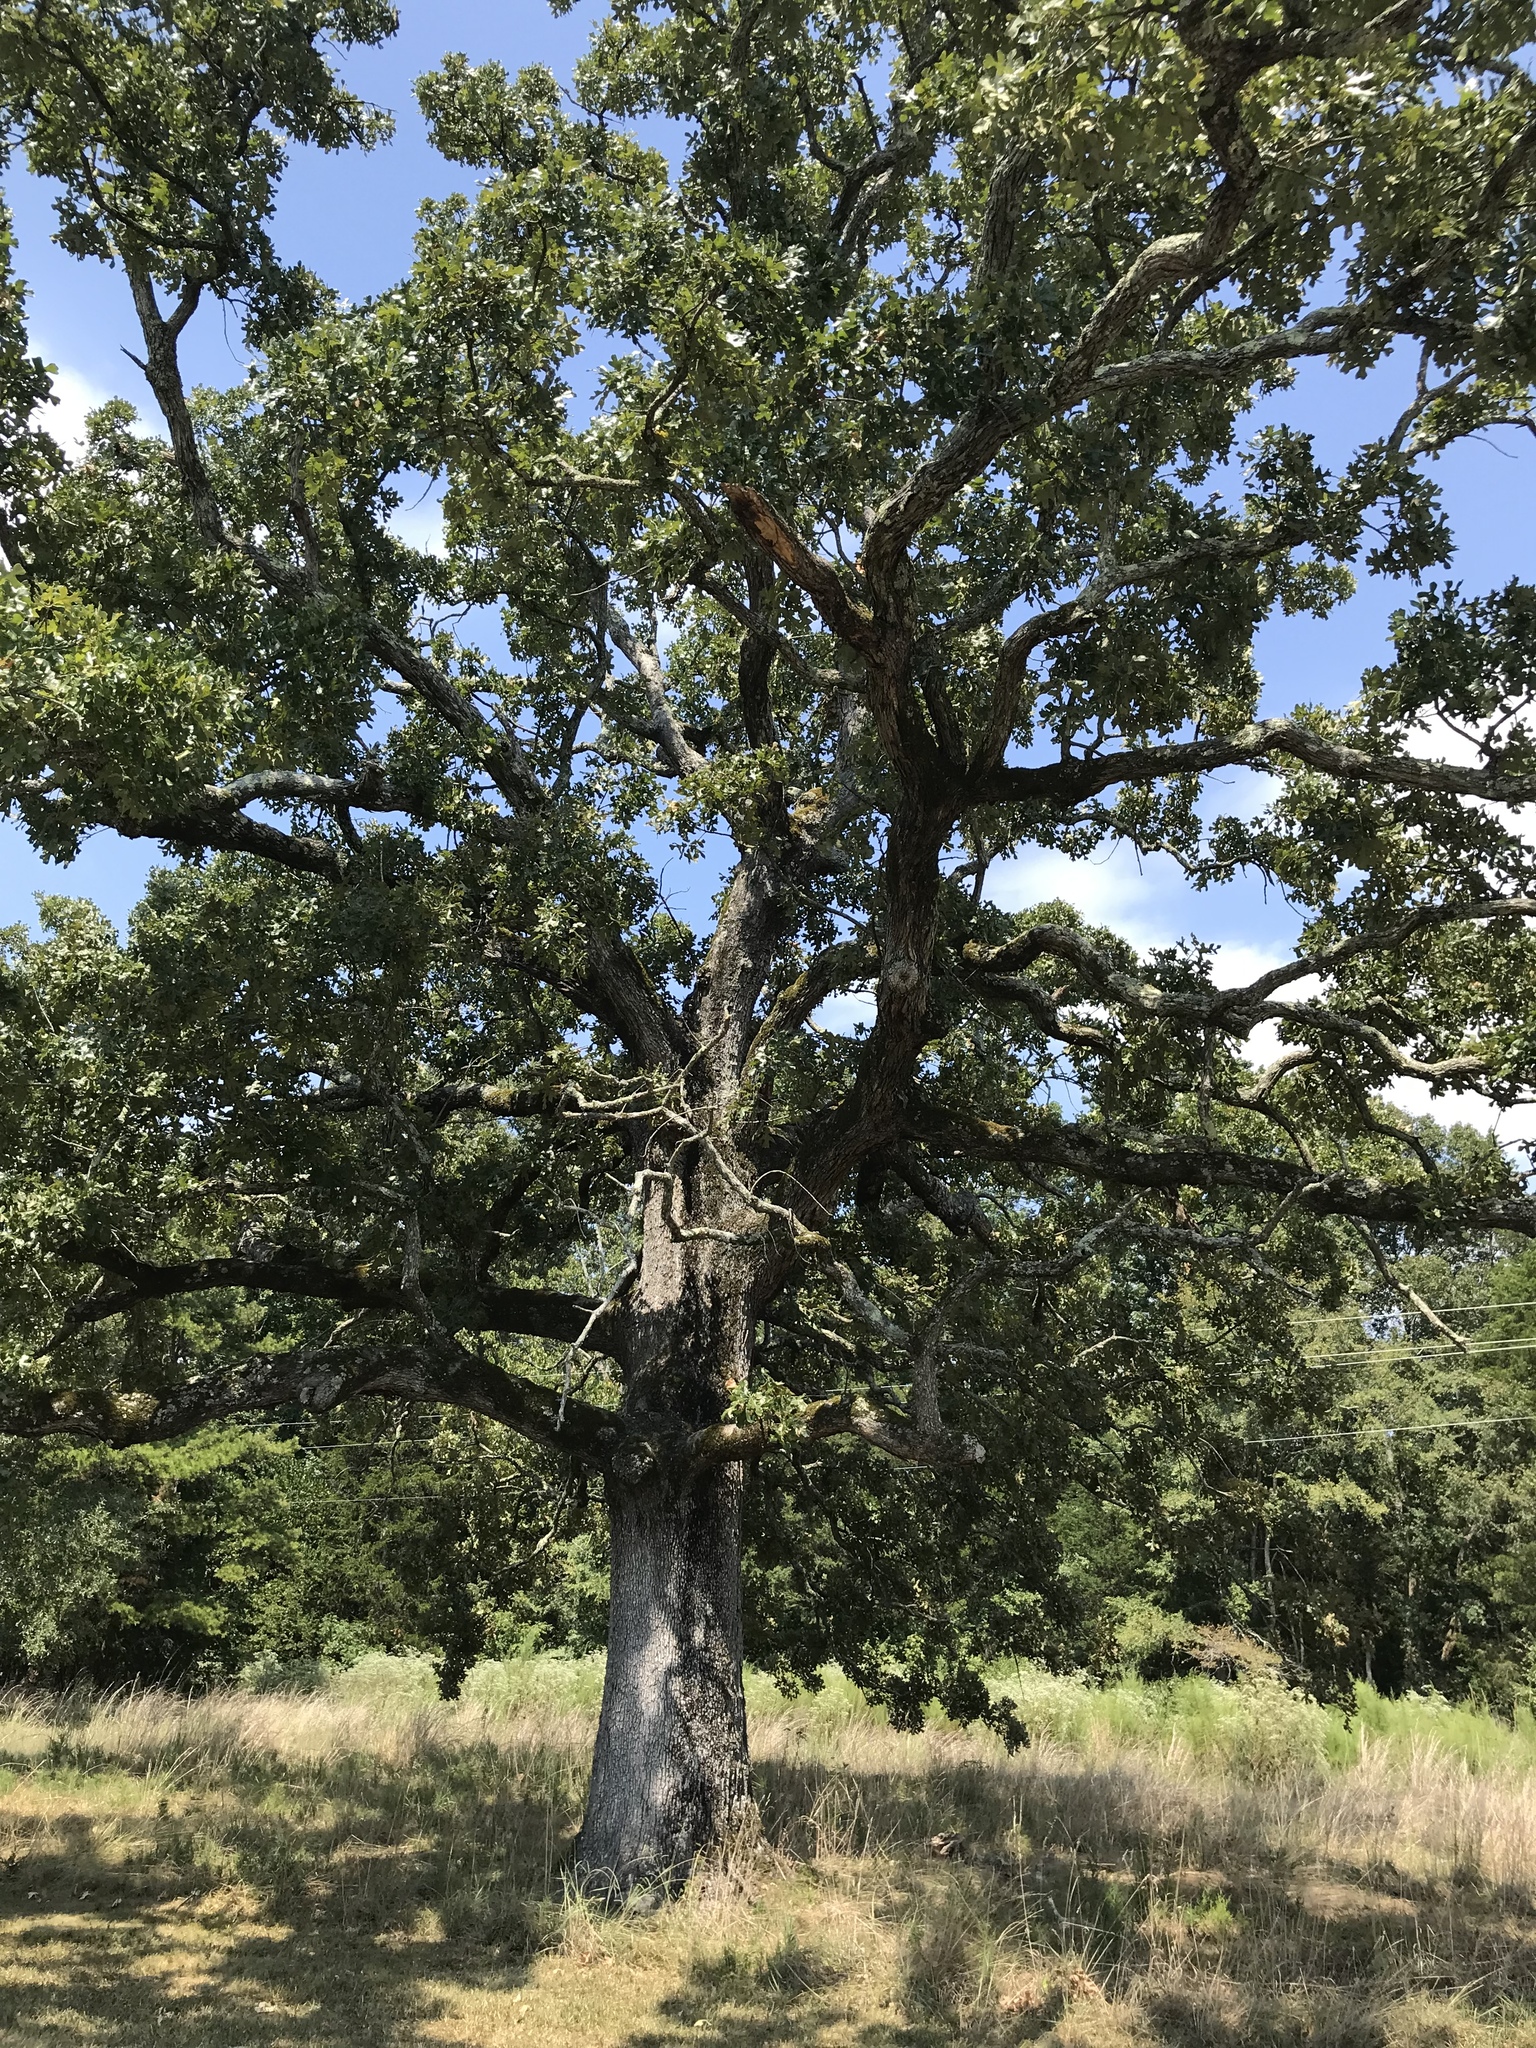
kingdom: Plantae
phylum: Tracheophyta
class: Magnoliopsida
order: Fagales
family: Fagaceae
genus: Quercus
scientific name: Quercus stellata
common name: Post oak
